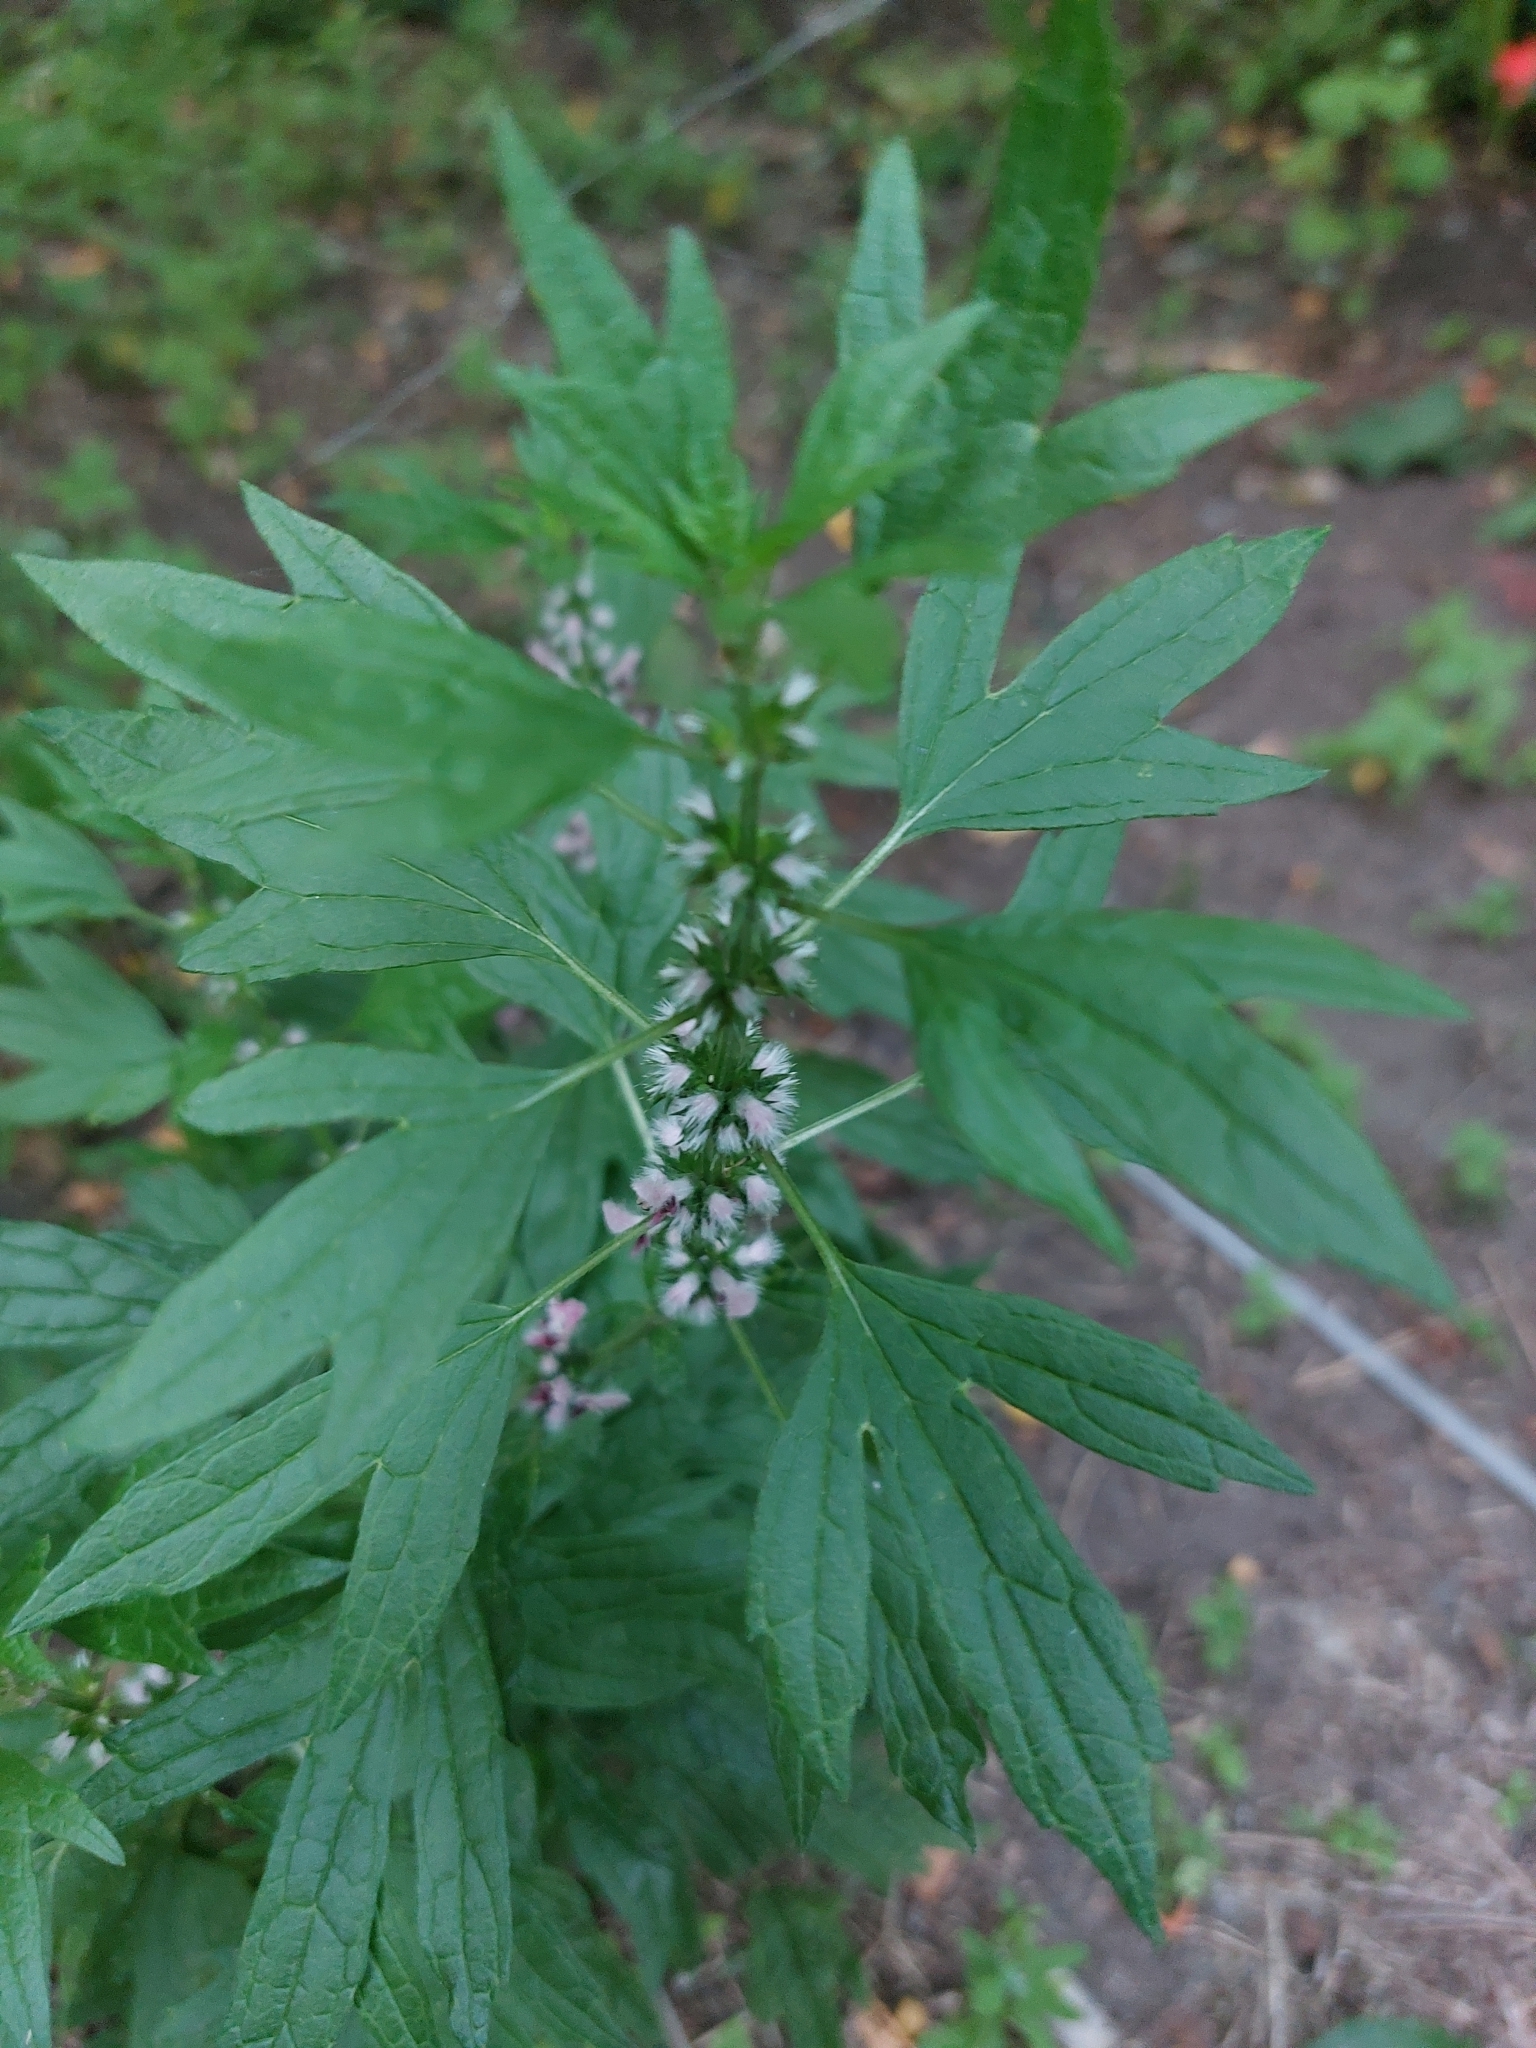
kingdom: Plantae
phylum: Tracheophyta
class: Magnoliopsida
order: Lamiales
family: Lamiaceae
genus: Leonurus
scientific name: Leonurus cardiaca
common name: Motherwort
